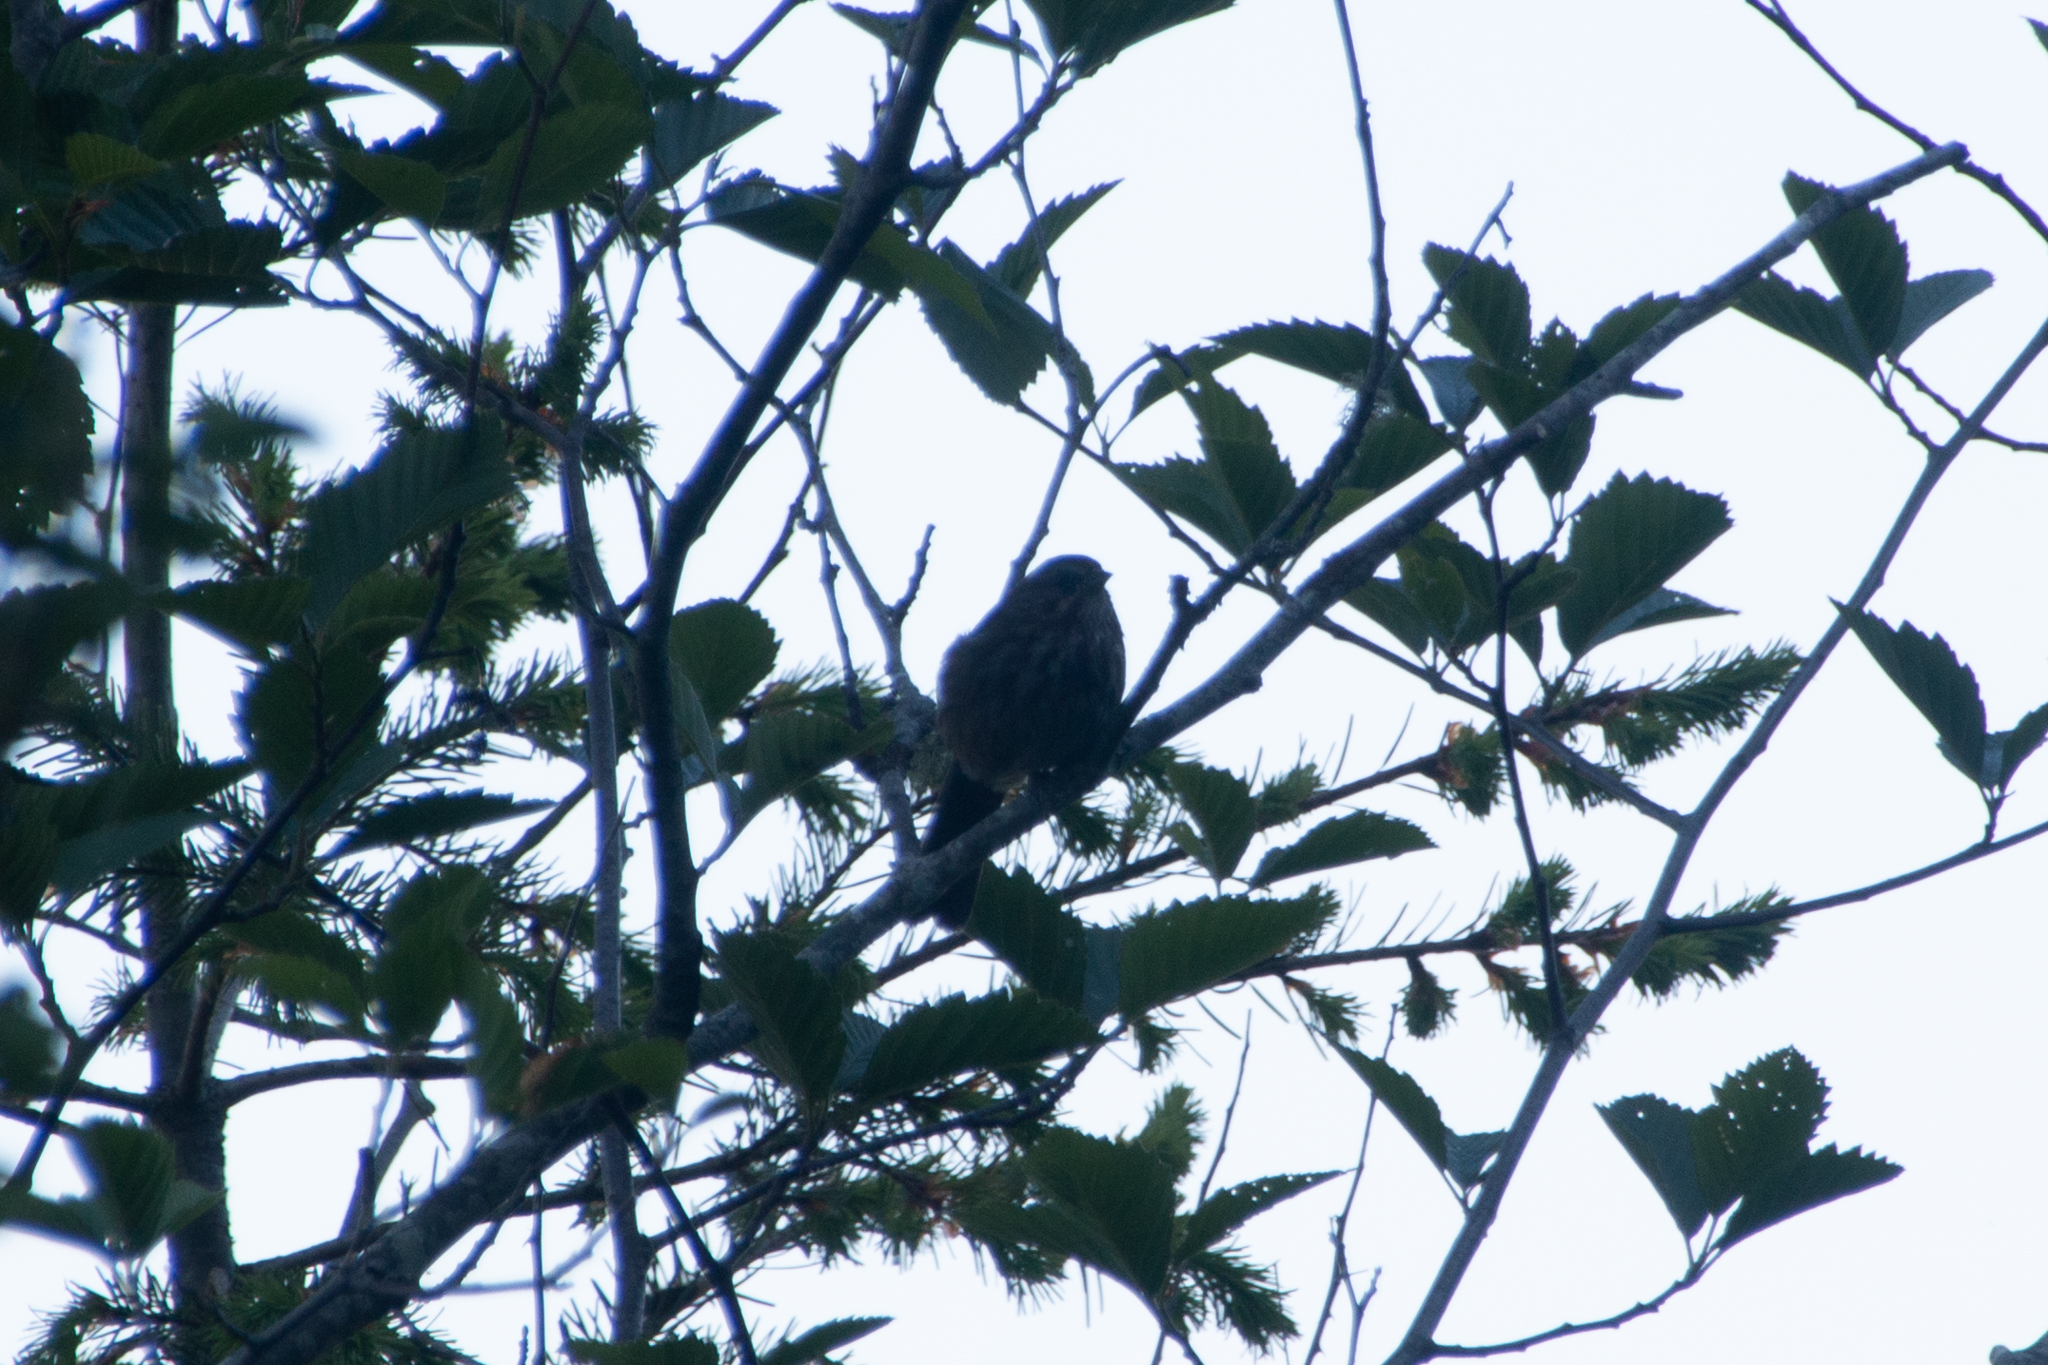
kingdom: Animalia
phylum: Chordata
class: Aves
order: Passeriformes
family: Passerellidae
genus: Melospiza
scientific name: Melospiza melodia
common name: Song sparrow
